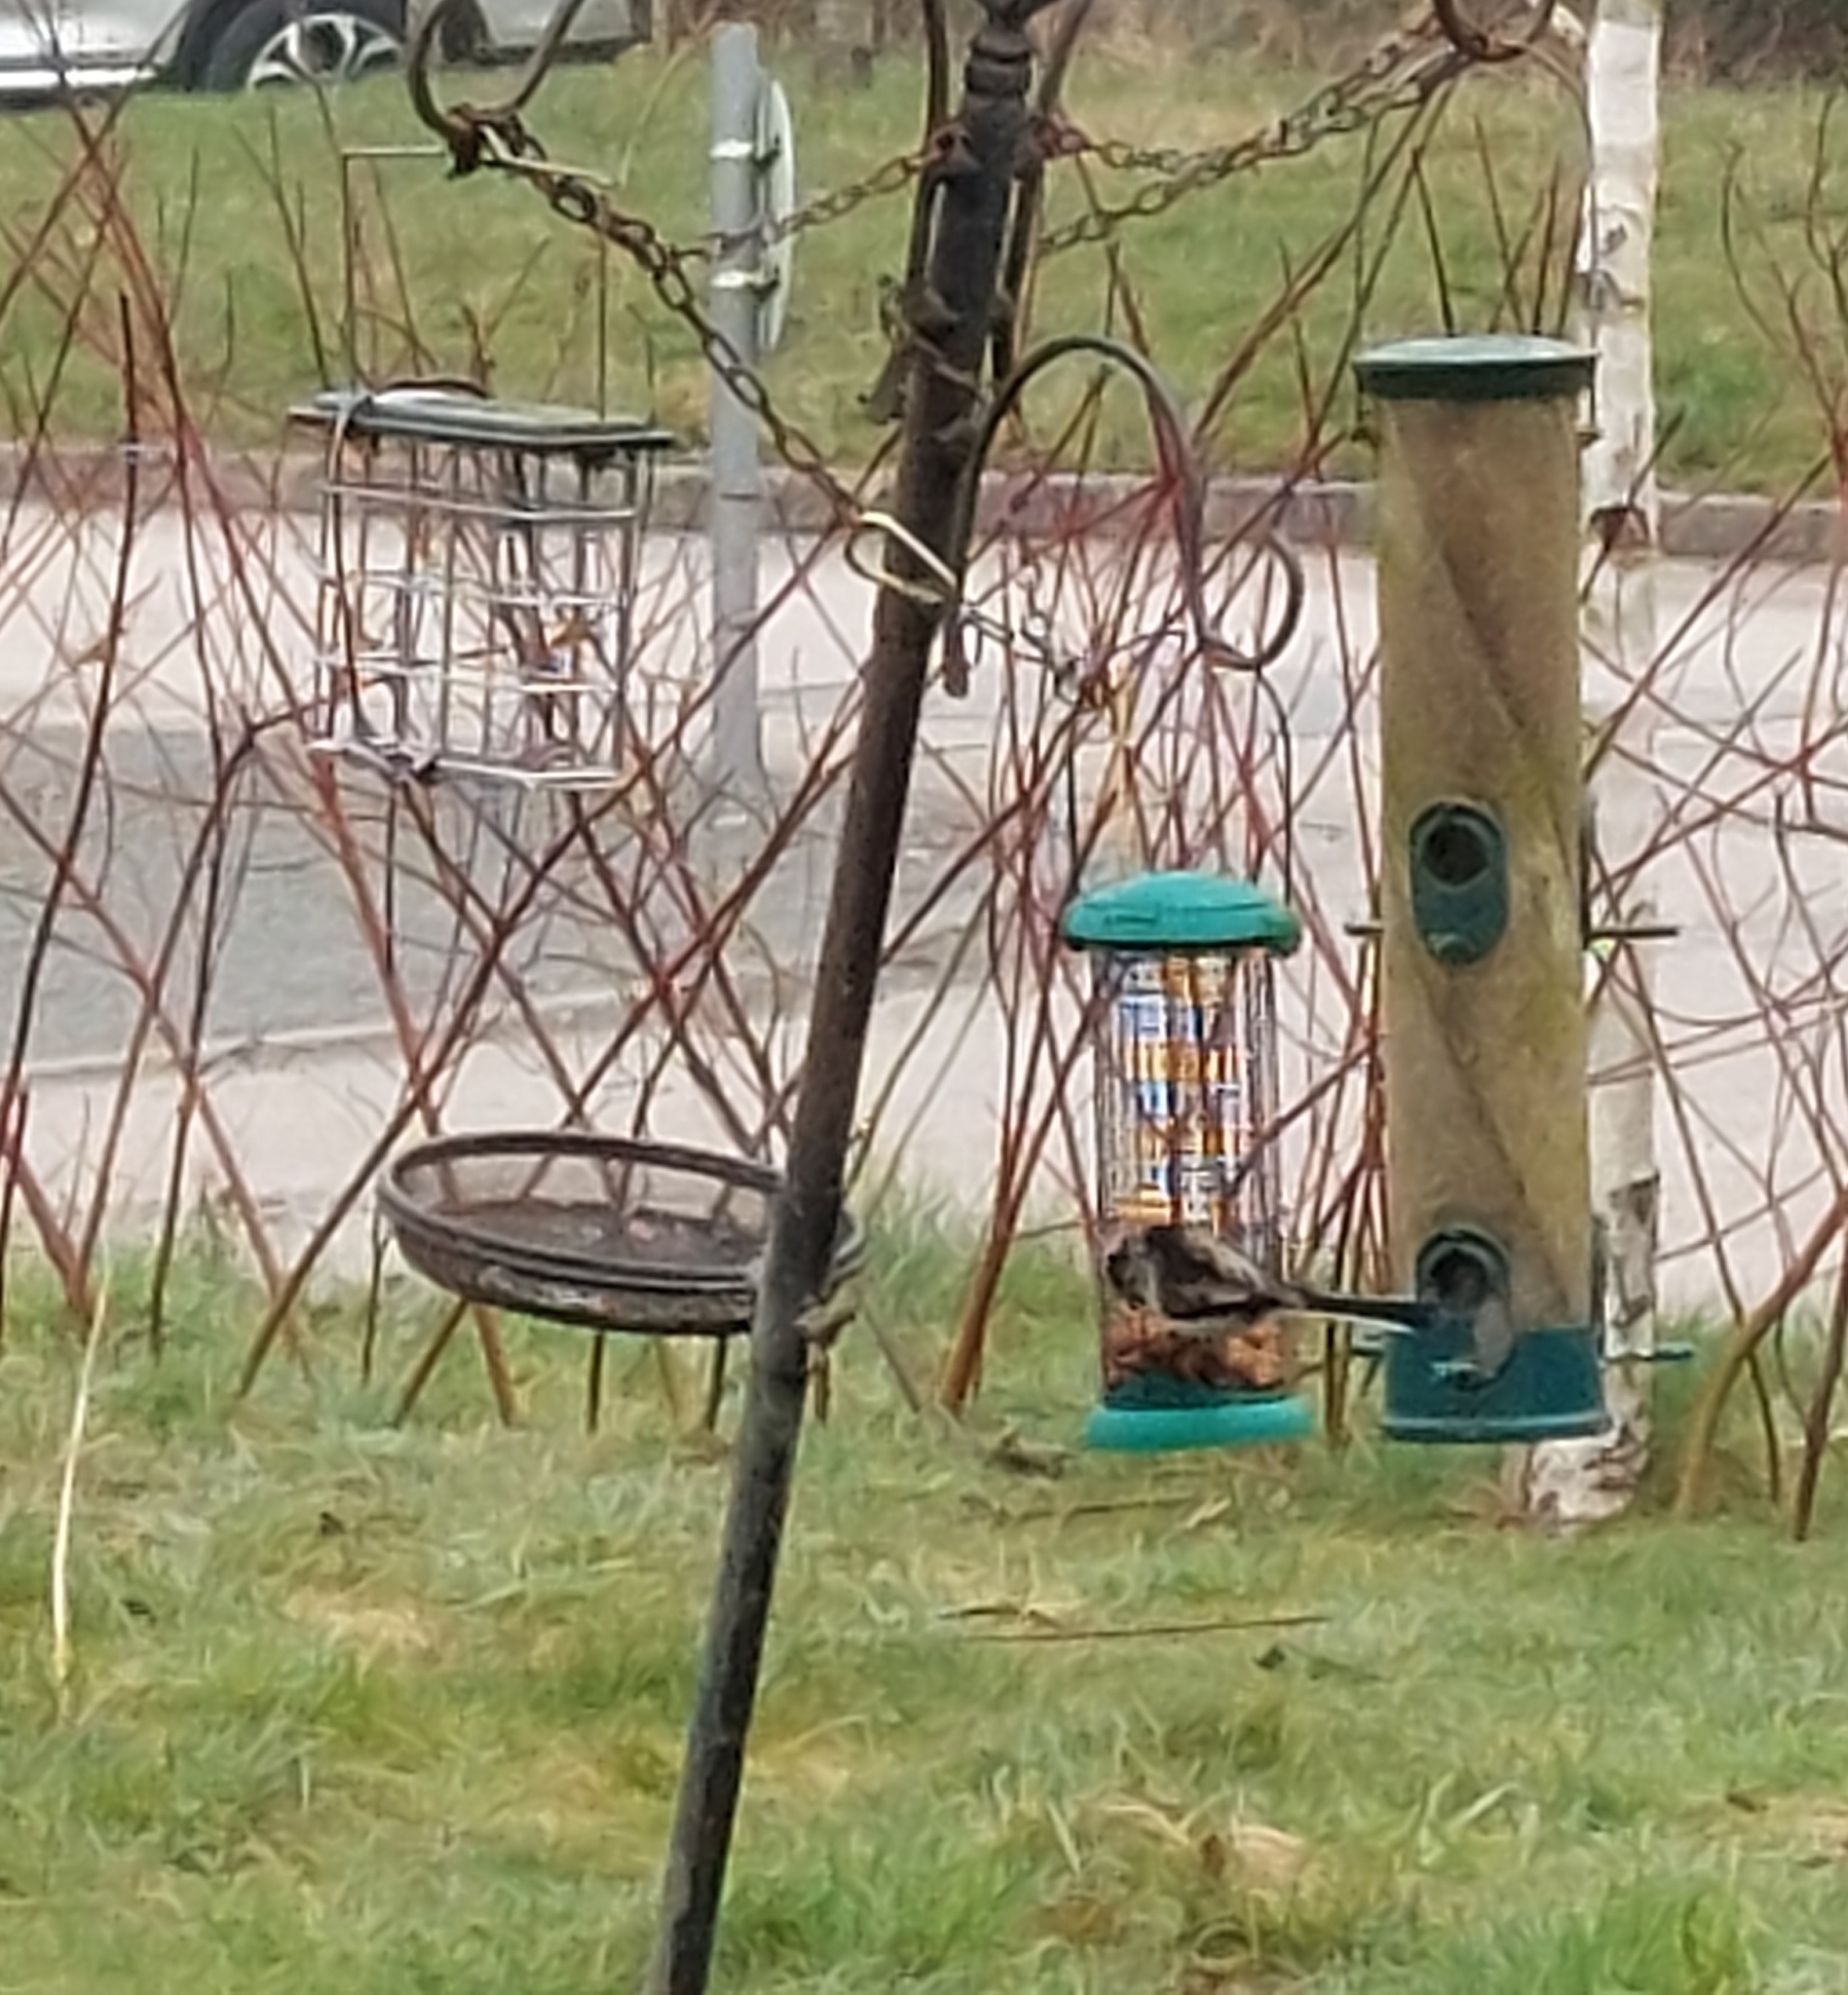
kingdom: Animalia
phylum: Chordata
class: Aves
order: Passeriformes
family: Aegithalidae
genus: Aegithalos
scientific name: Aegithalos caudatus
